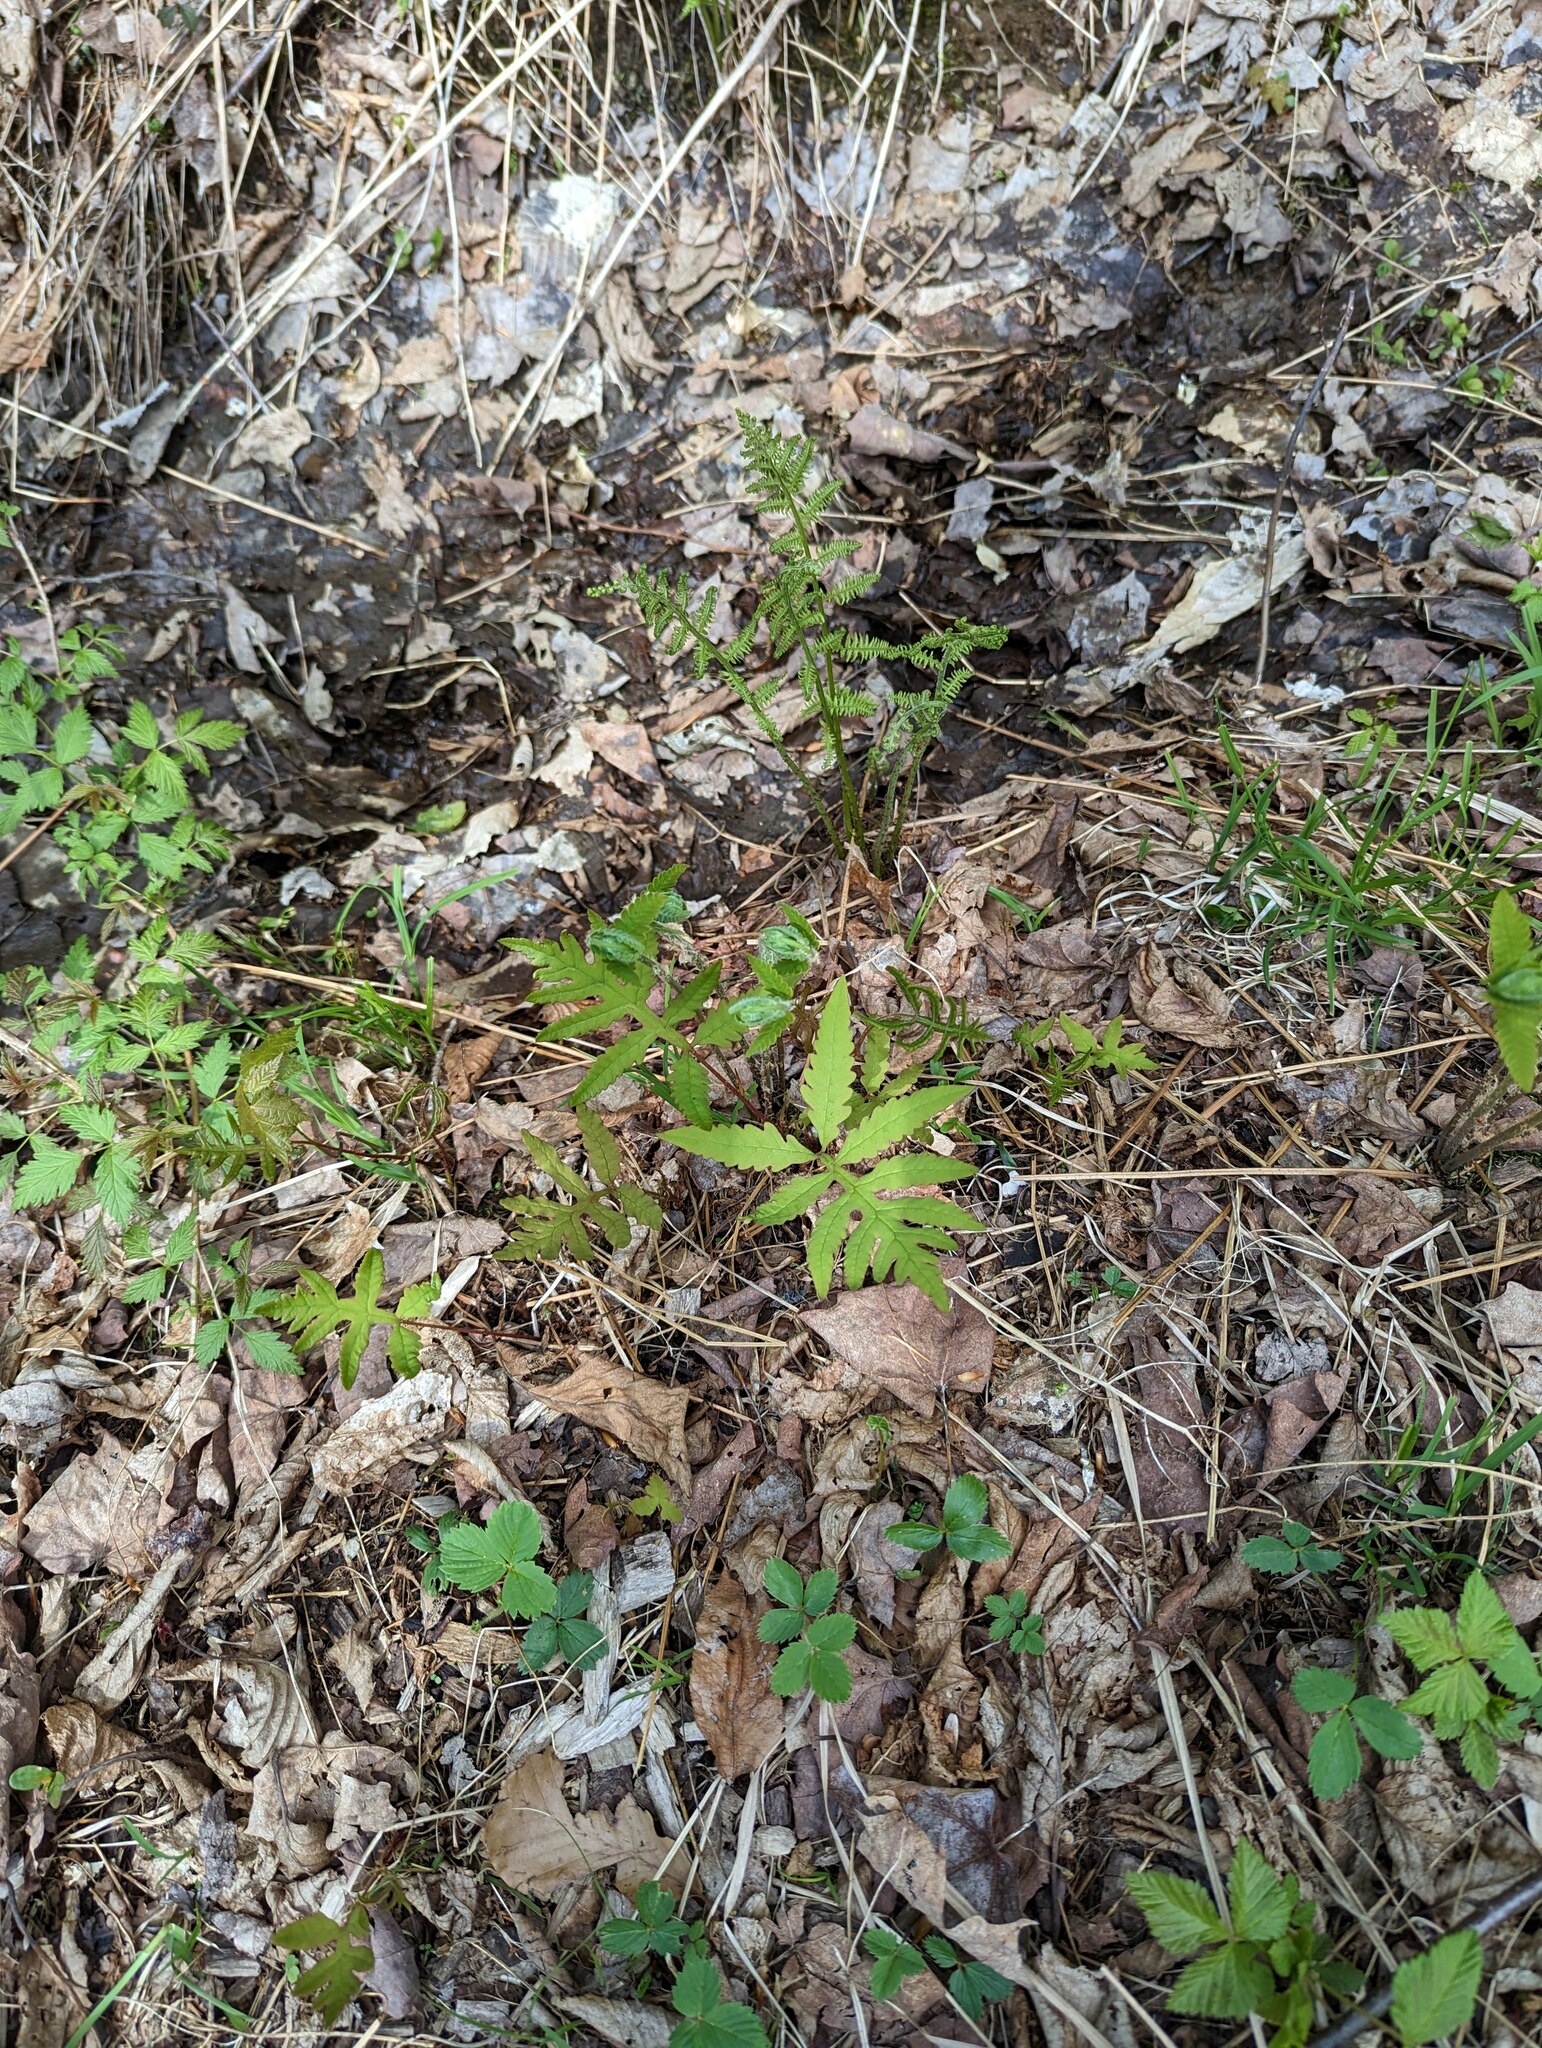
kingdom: Plantae
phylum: Tracheophyta
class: Polypodiopsida
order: Polypodiales
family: Onocleaceae
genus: Onoclea
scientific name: Onoclea sensibilis
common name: Sensitive fern
